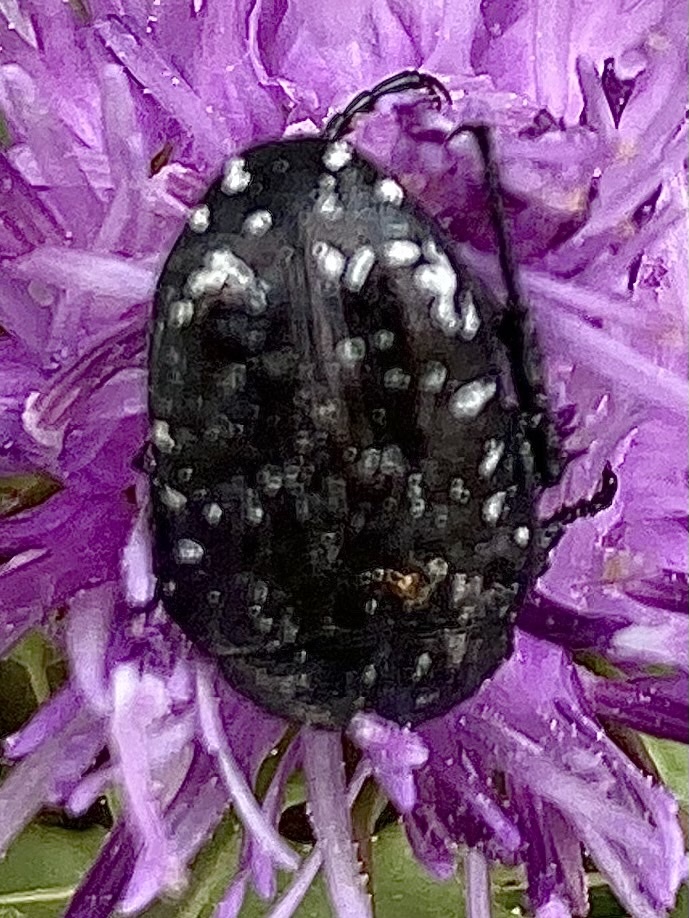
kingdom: Animalia
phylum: Arthropoda
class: Insecta
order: Coleoptera
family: Scarabaeidae
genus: Oxythyrea
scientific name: Oxythyrea funesta
